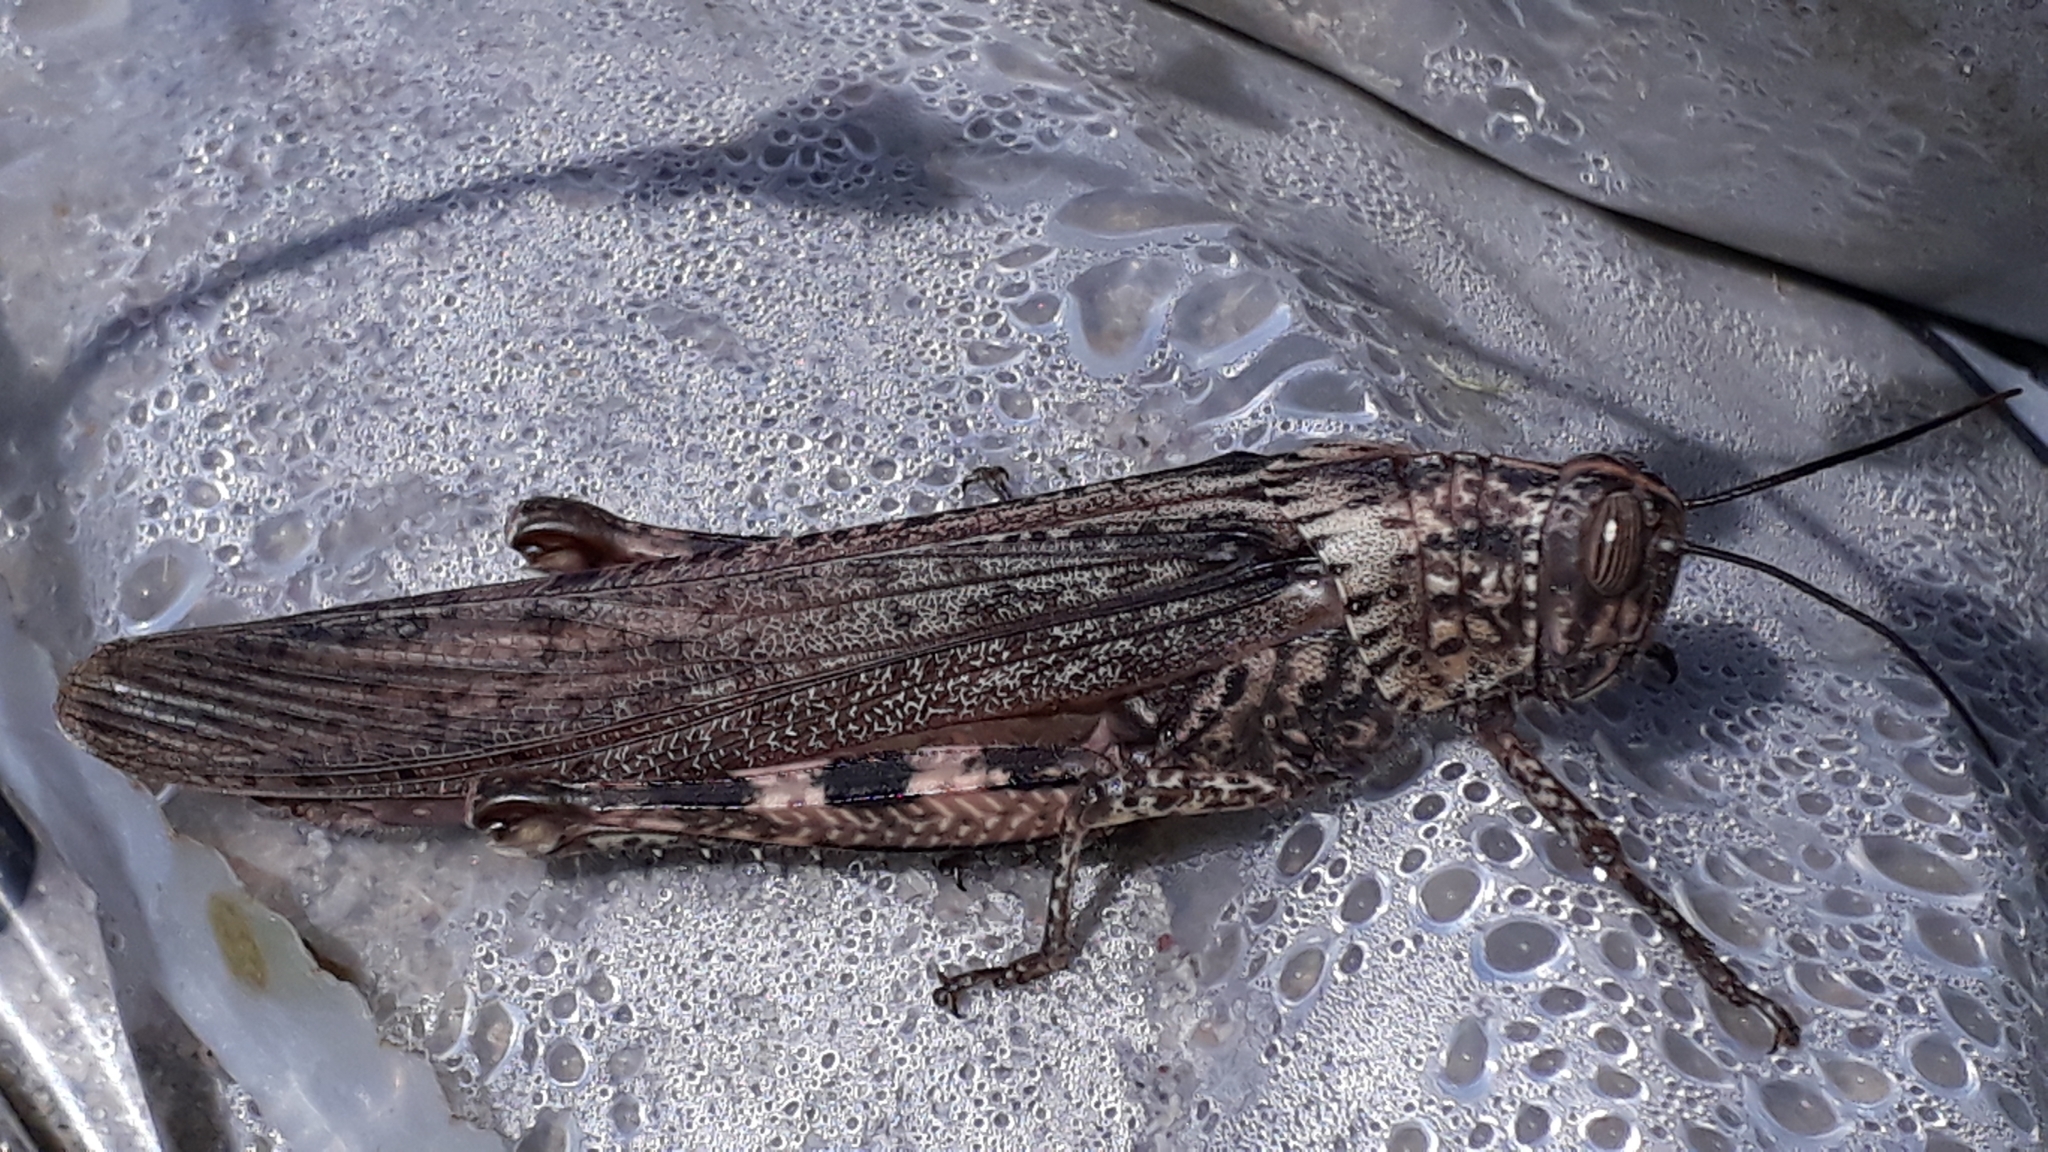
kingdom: Animalia
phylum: Arthropoda
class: Insecta
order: Orthoptera
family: Acrididae
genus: Anacridium
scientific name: Anacridium aegyptium
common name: Egyptian grasshopper
